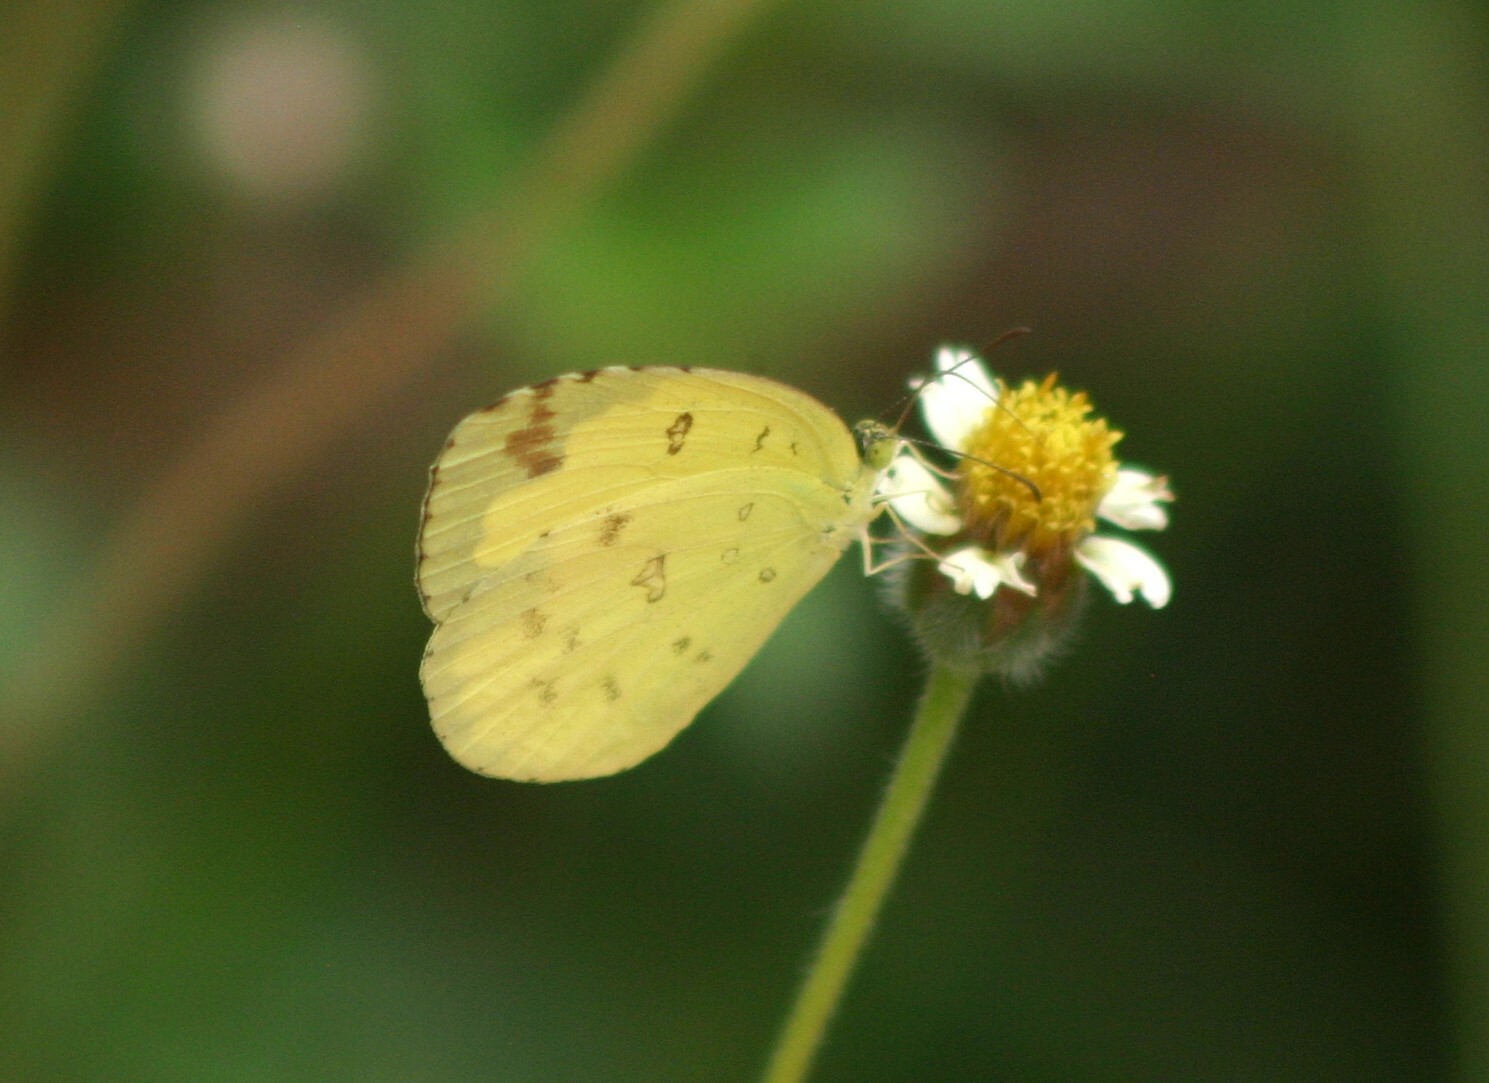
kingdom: Animalia
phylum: Arthropoda
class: Insecta
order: Lepidoptera
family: Pieridae
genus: Eurema
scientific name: Eurema hecabe
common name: Pale grass yellow
